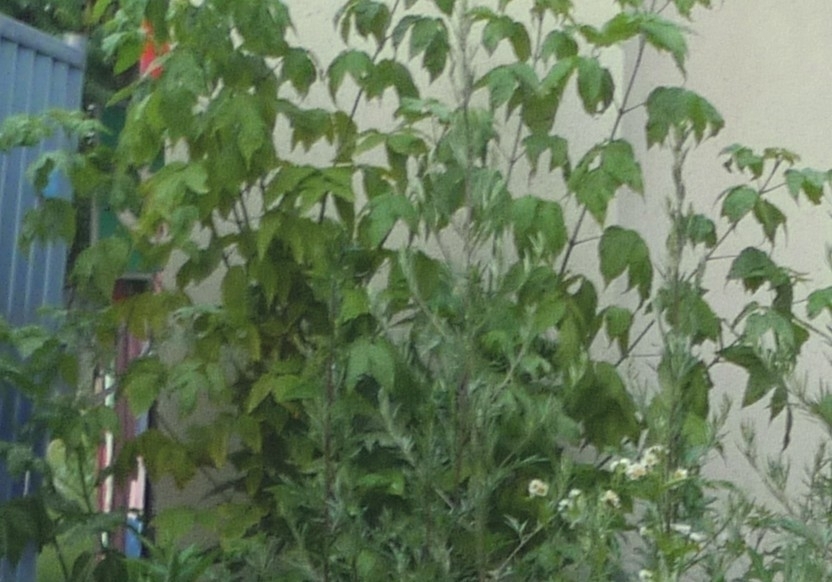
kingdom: Plantae
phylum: Tracheophyta
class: Magnoliopsida
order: Sapindales
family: Sapindaceae
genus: Acer
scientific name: Acer negundo
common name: Ashleaf maple
